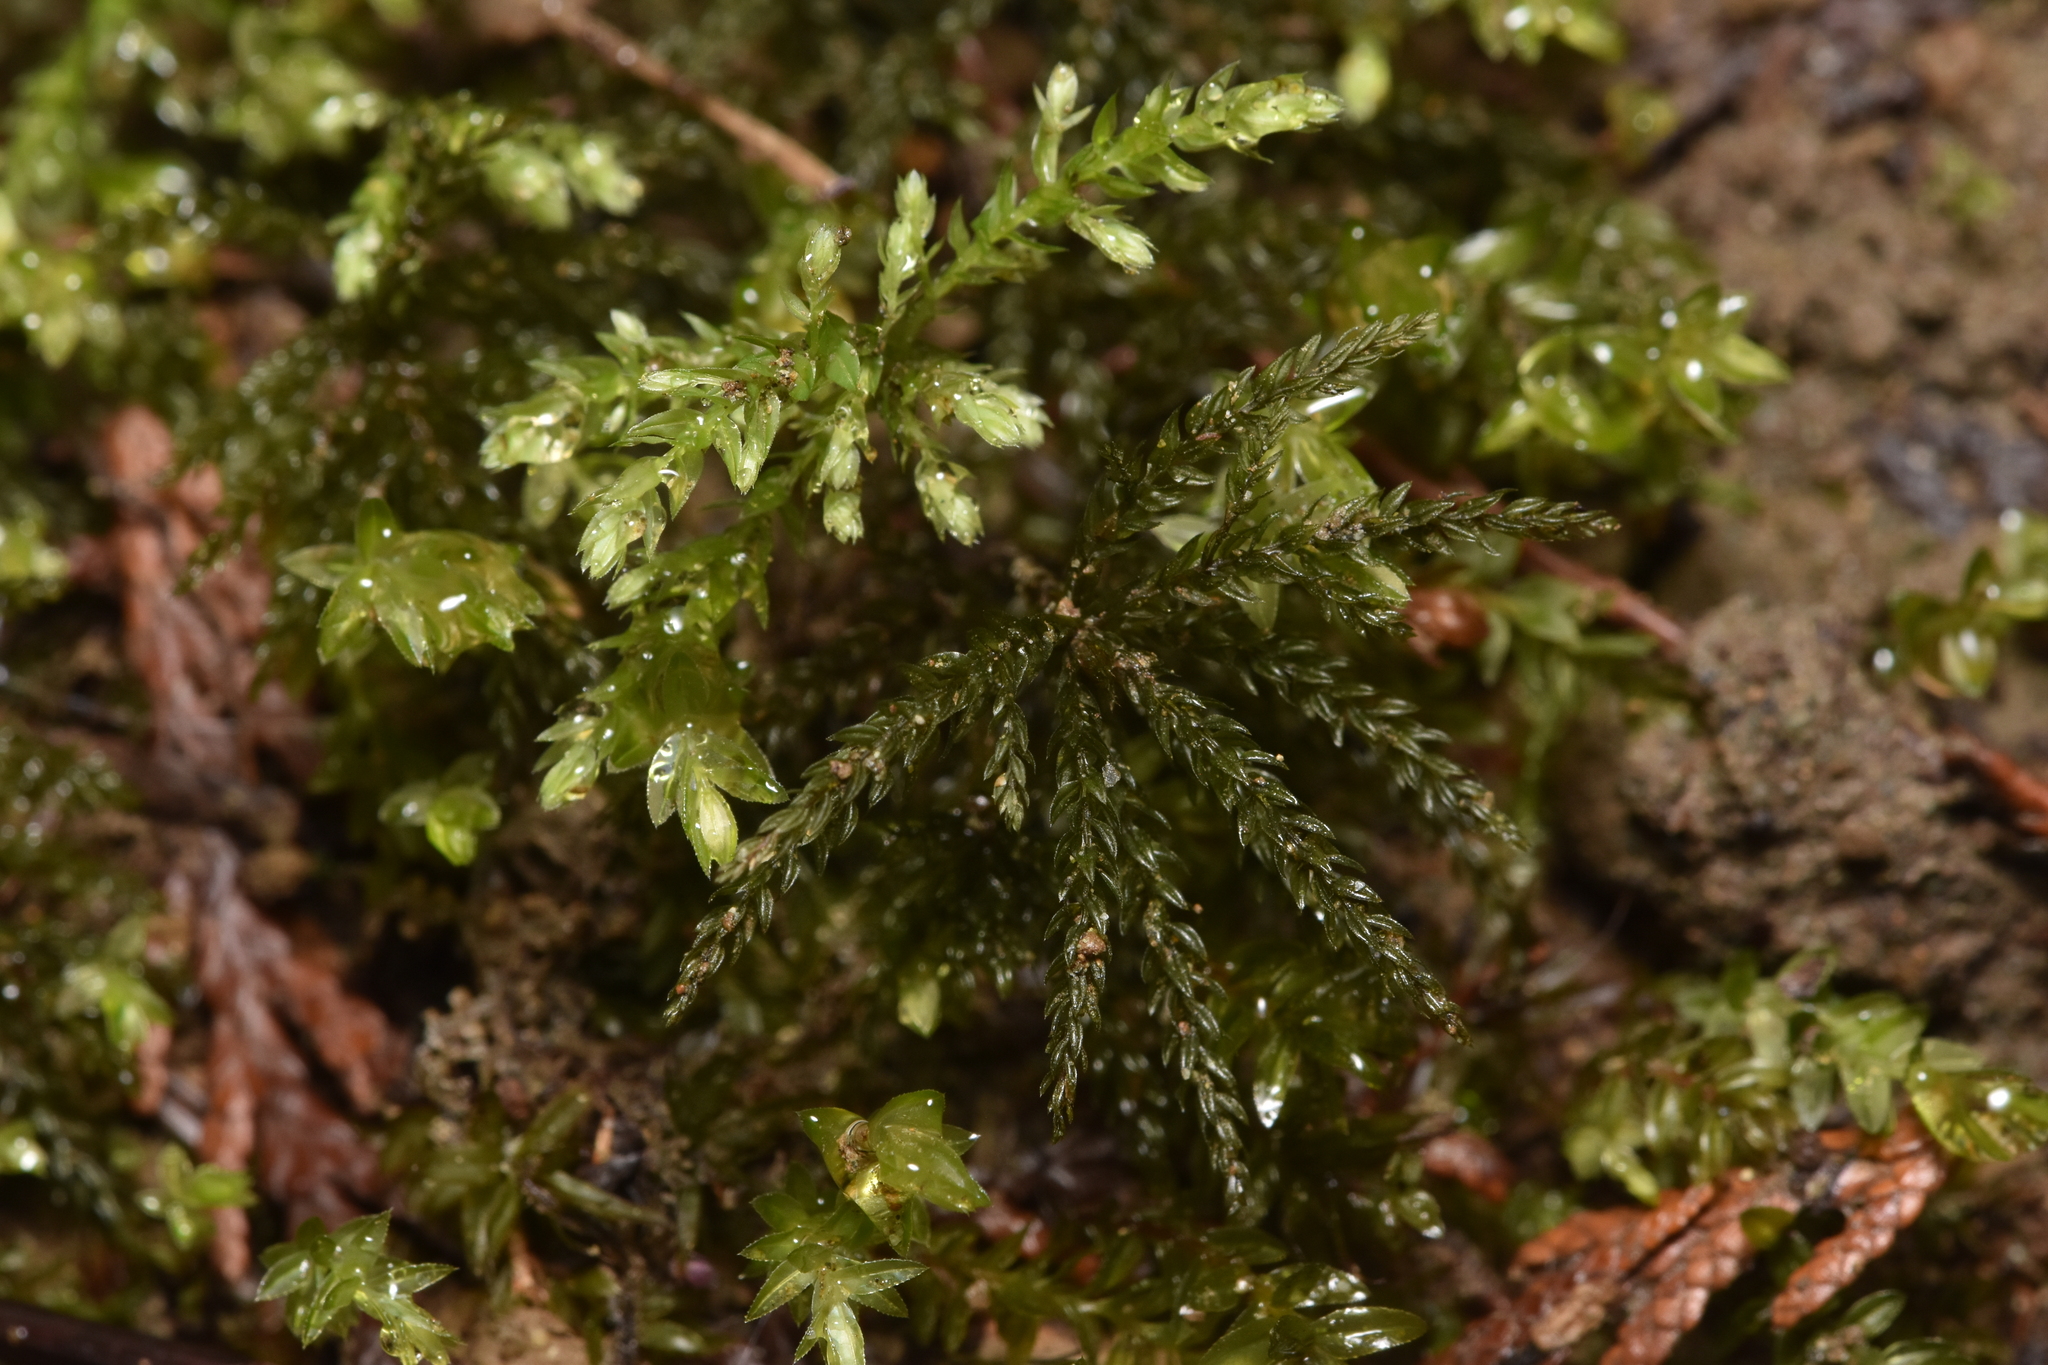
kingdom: Plantae
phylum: Bryophyta
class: Bryopsida
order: Bryales
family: Mniaceae
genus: Leucolepis
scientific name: Leucolepis acanthoneura
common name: Leucolepis umbrella moss
